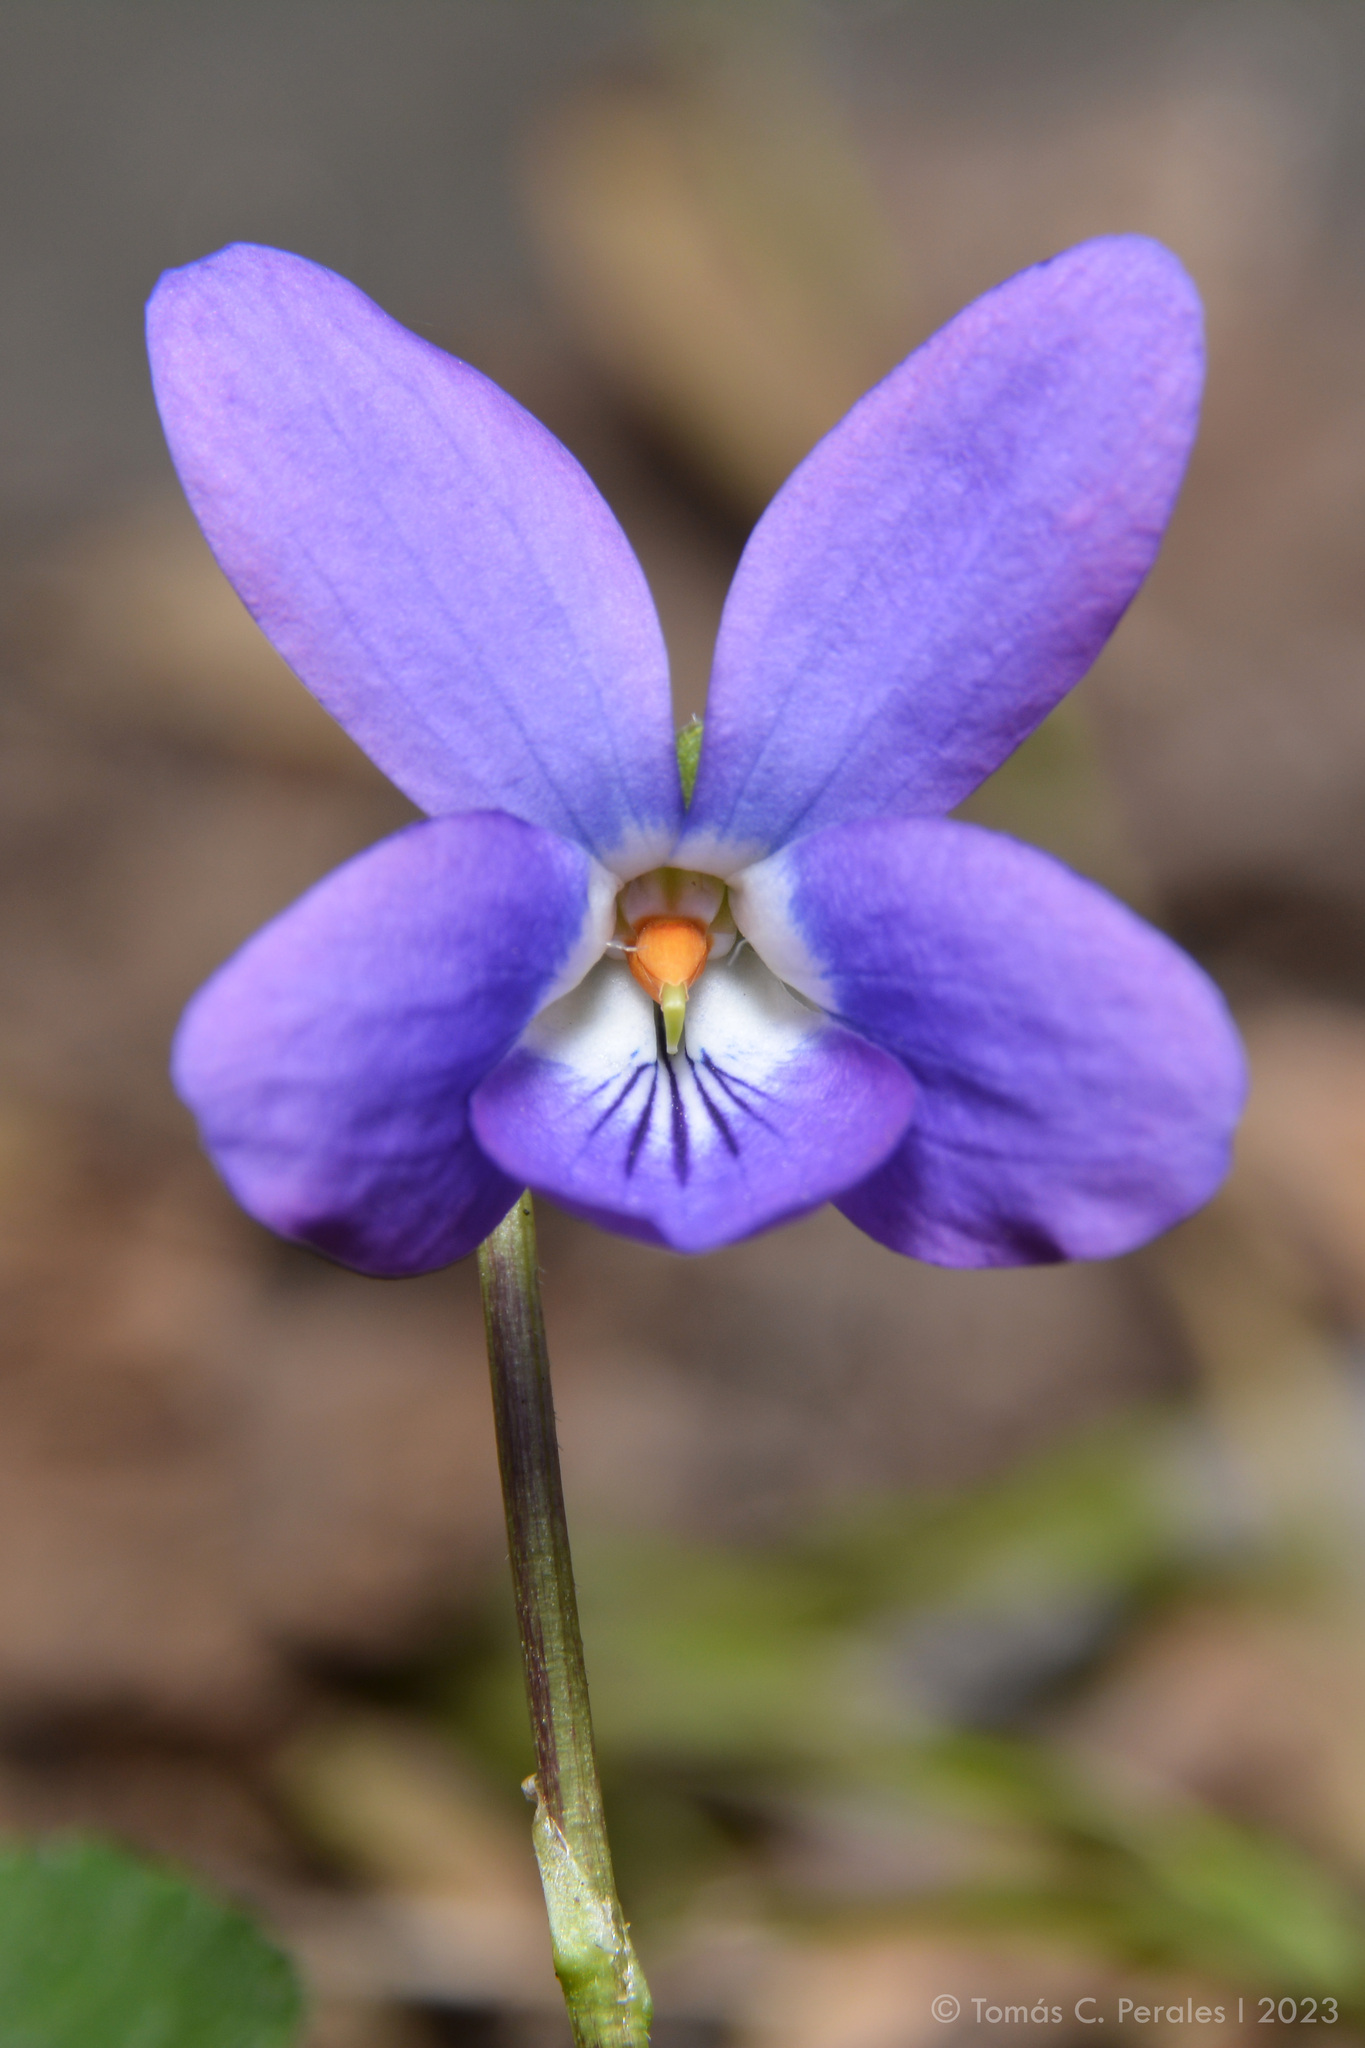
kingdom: Plantae
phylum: Tracheophyta
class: Magnoliopsida
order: Malpighiales
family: Violaceae
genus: Viola
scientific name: Viola odorata
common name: Sweet violet
